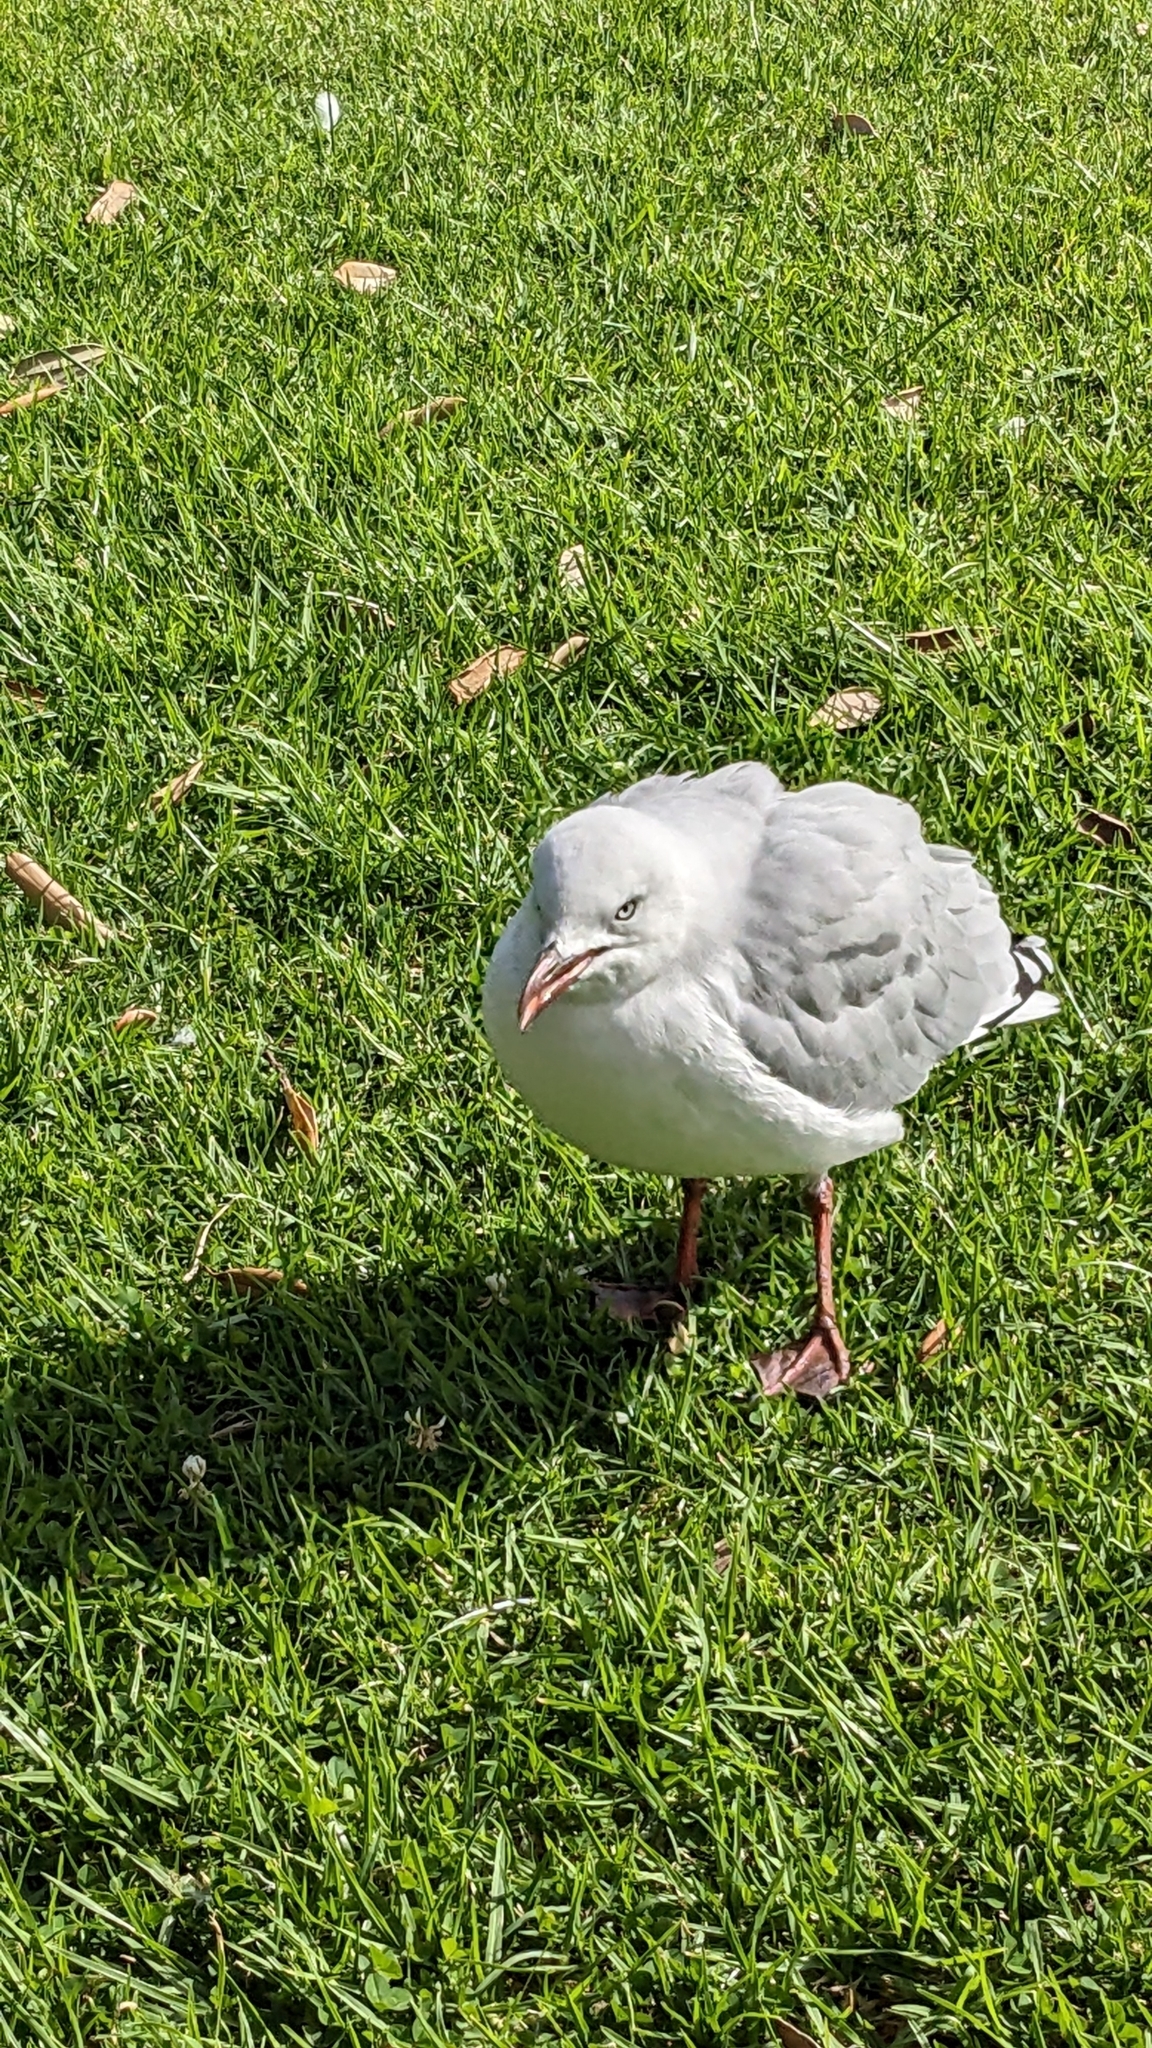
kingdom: Animalia
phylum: Chordata
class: Aves
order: Charadriiformes
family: Laridae
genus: Chroicocephalus
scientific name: Chroicocephalus novaehollandiae
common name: Silver gull
